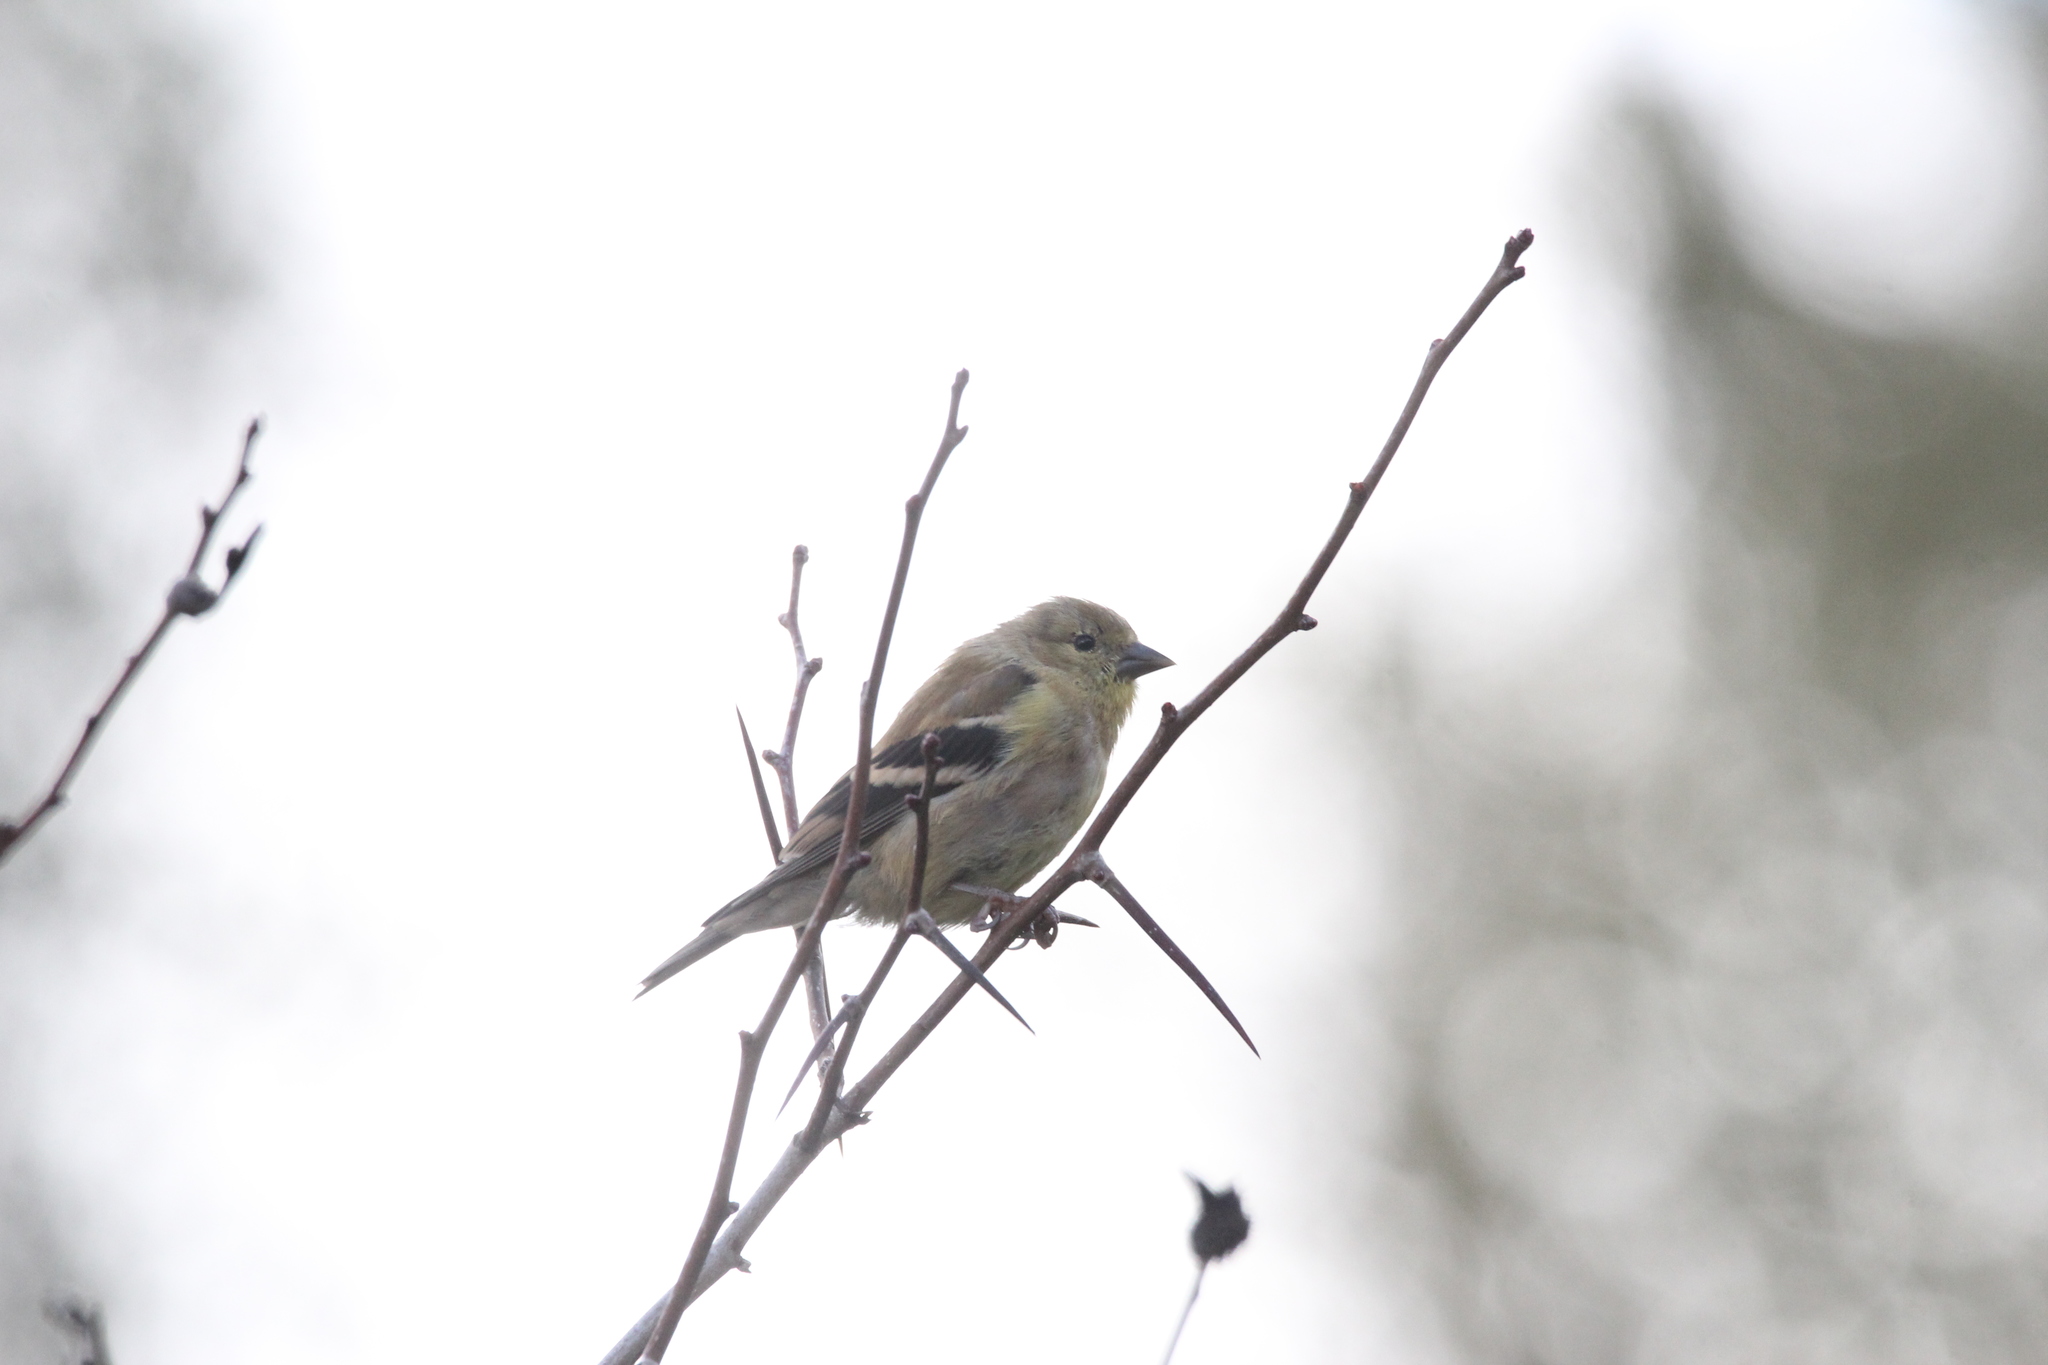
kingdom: Animalia
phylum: Chordata
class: Aves
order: Passeriformes
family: Fringillidae
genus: Spinus
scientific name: Spinus tristis
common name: American goldfinch
